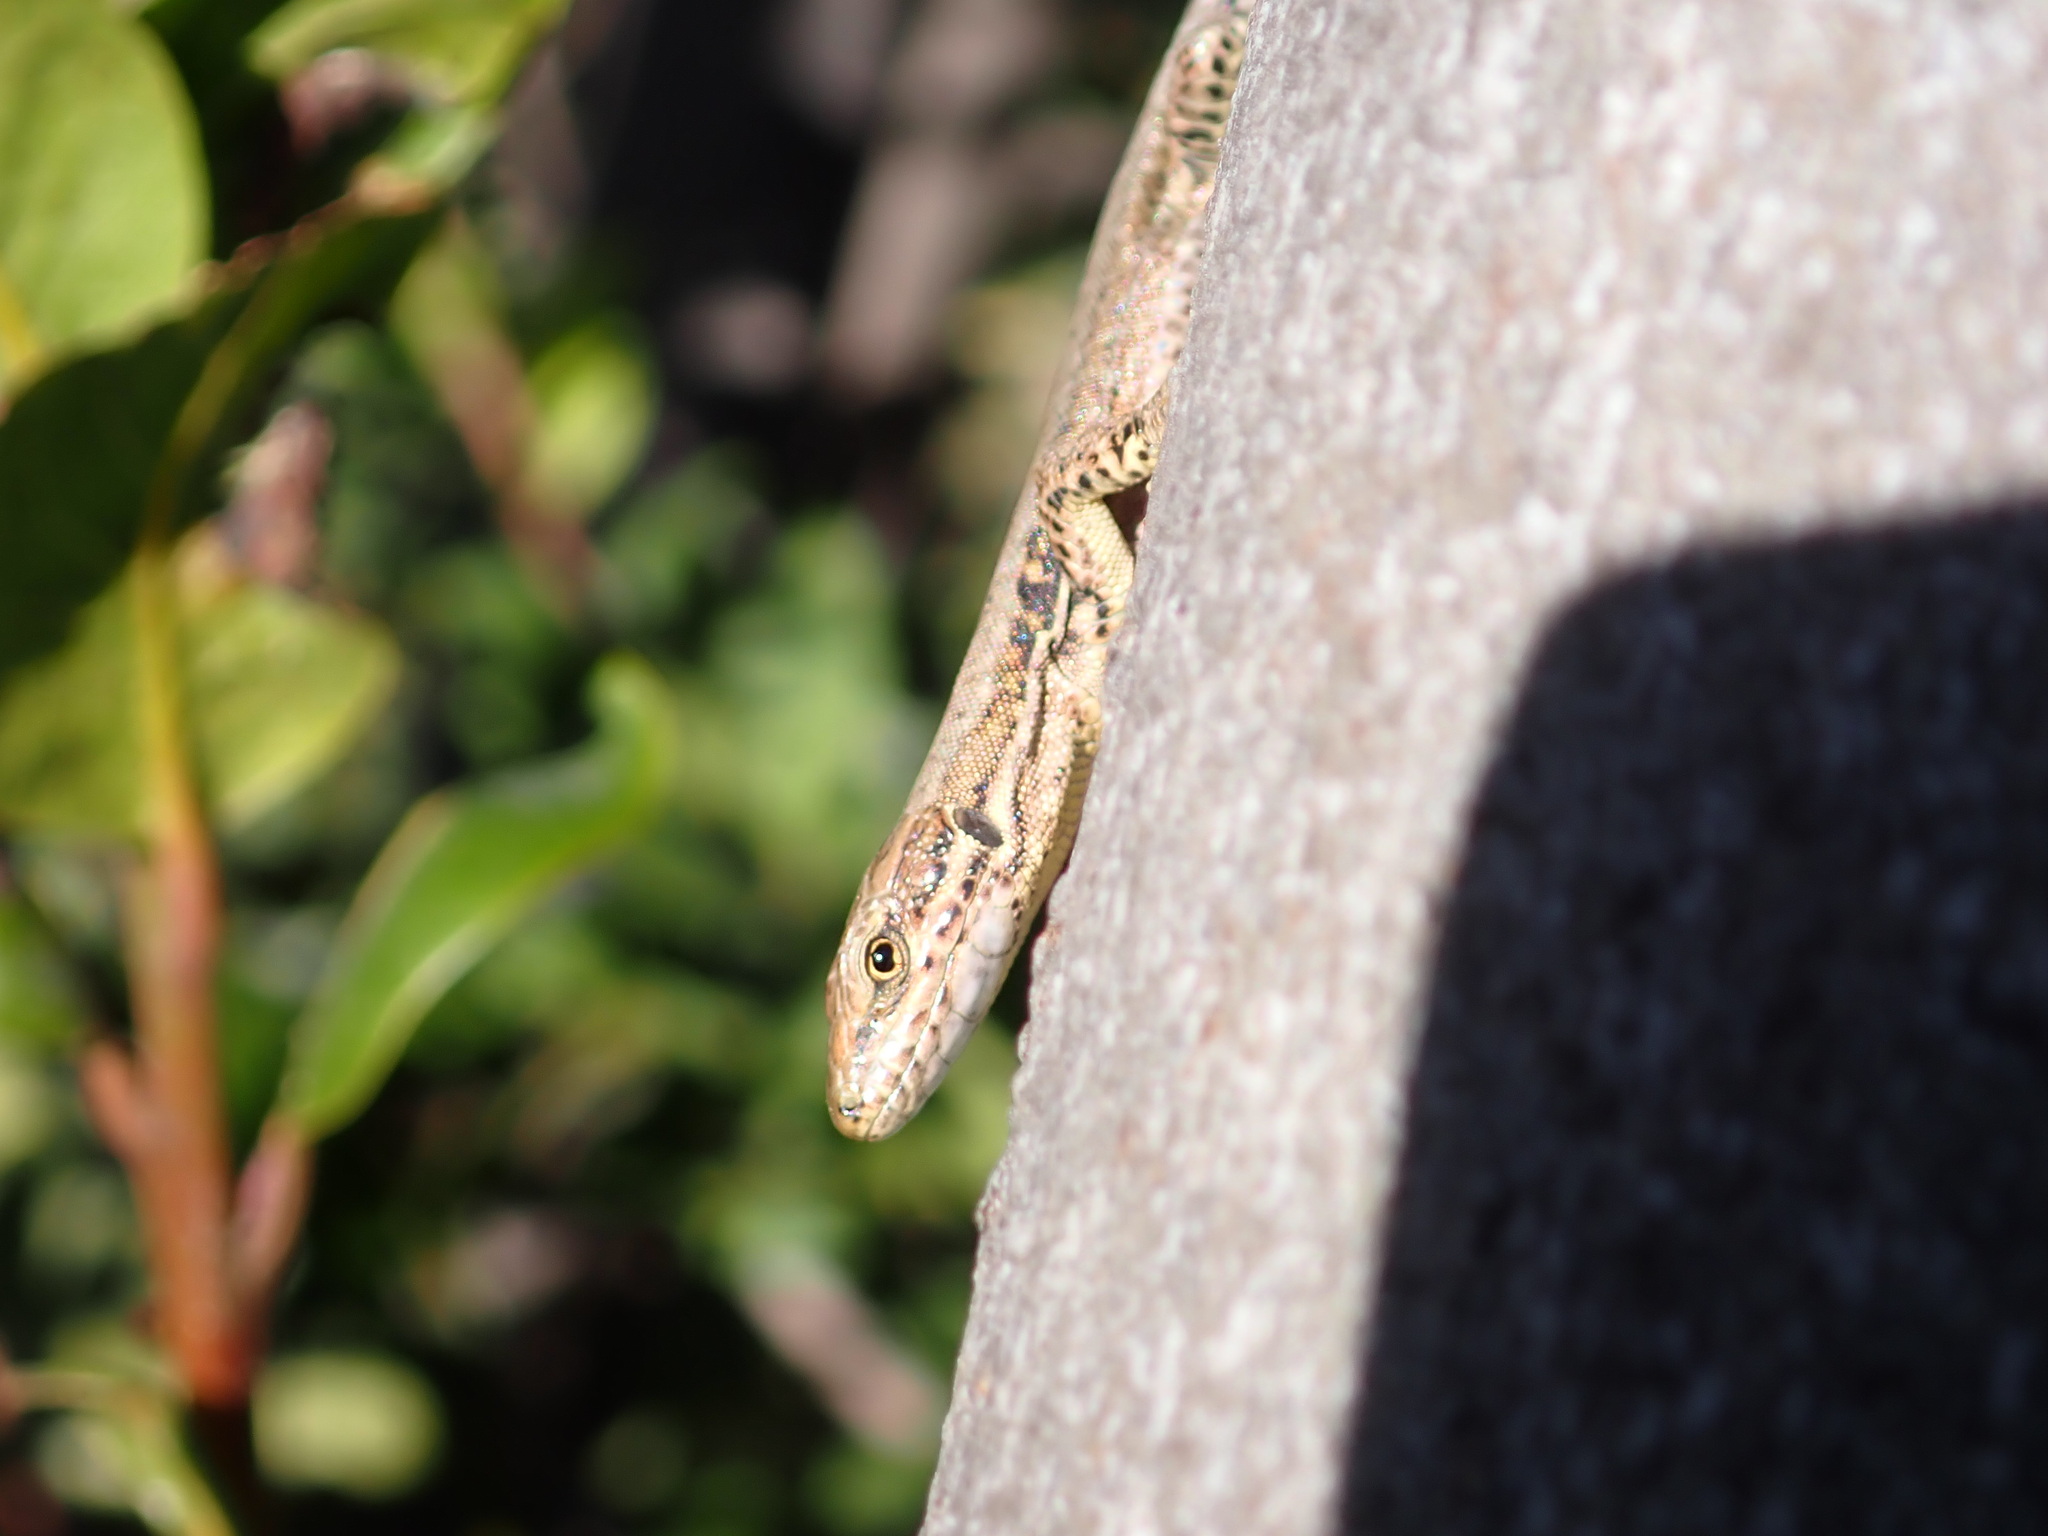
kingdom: Animalia
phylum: Chordata
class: Squamata
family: Lacertidae
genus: Podarcis
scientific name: Podarcis muralis
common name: Common wall lizard
